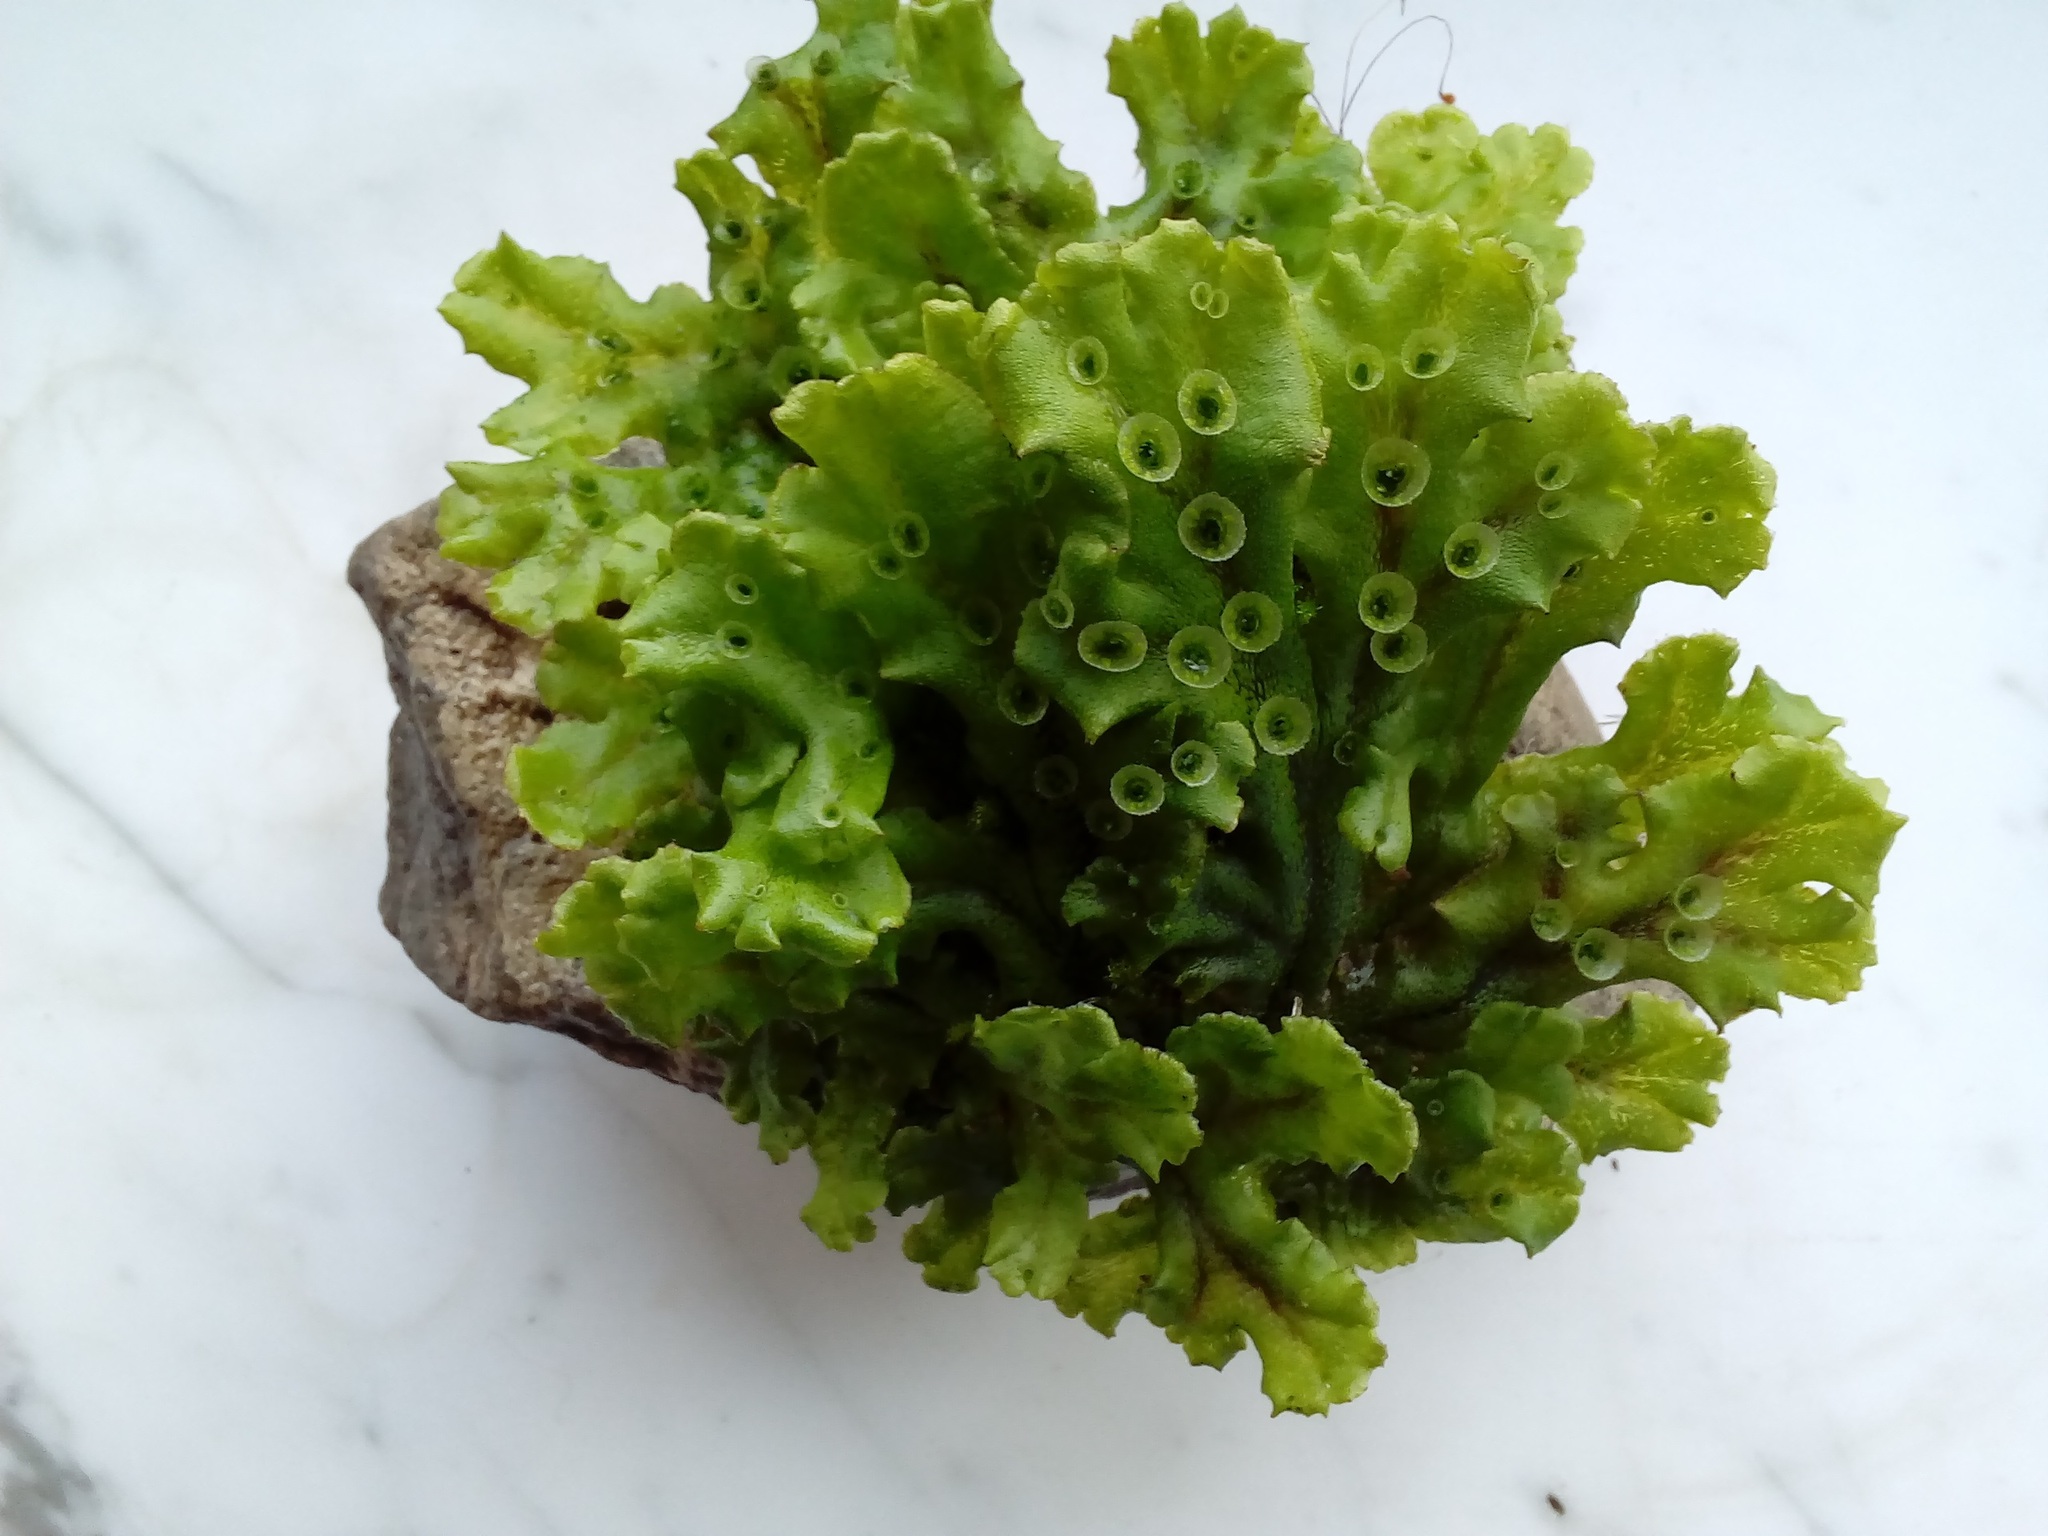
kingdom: Plantae
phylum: Marchantiophyta
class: Marchantiopsida
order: Marchantiales
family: Marchantiaceae
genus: Marchantia
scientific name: Marchantia polymorpha
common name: Common liverwort
